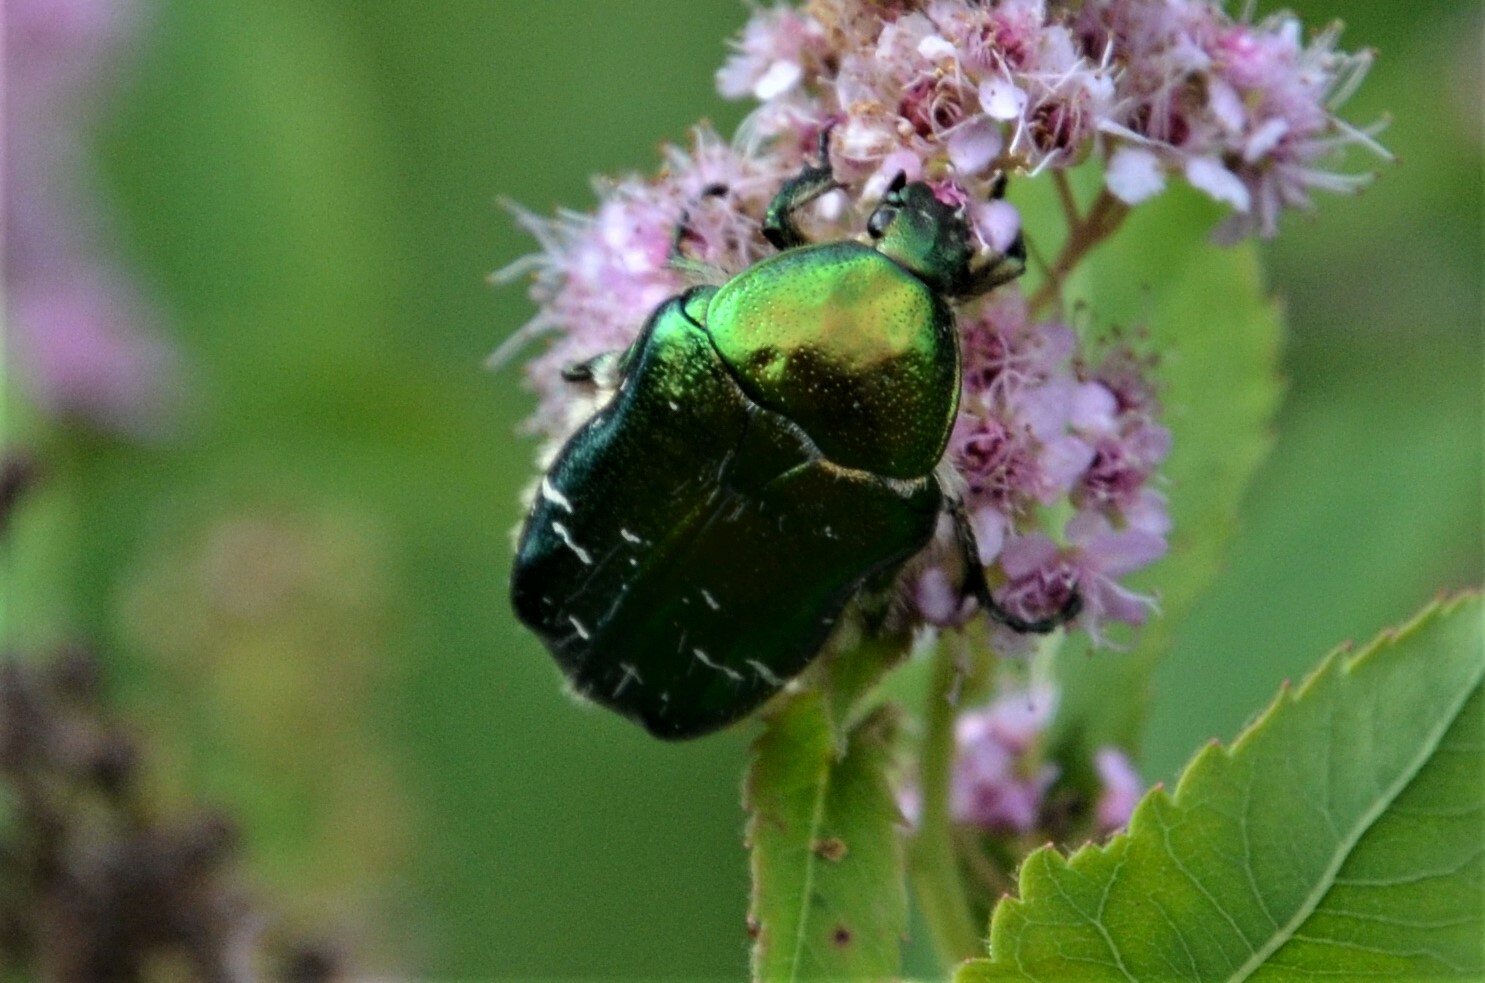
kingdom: Animalia
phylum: Arthropoda
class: Insecta
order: Coleoptera
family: Scarabaeidae
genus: Cetonia
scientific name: Cetonia aurata
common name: Rose chafer
